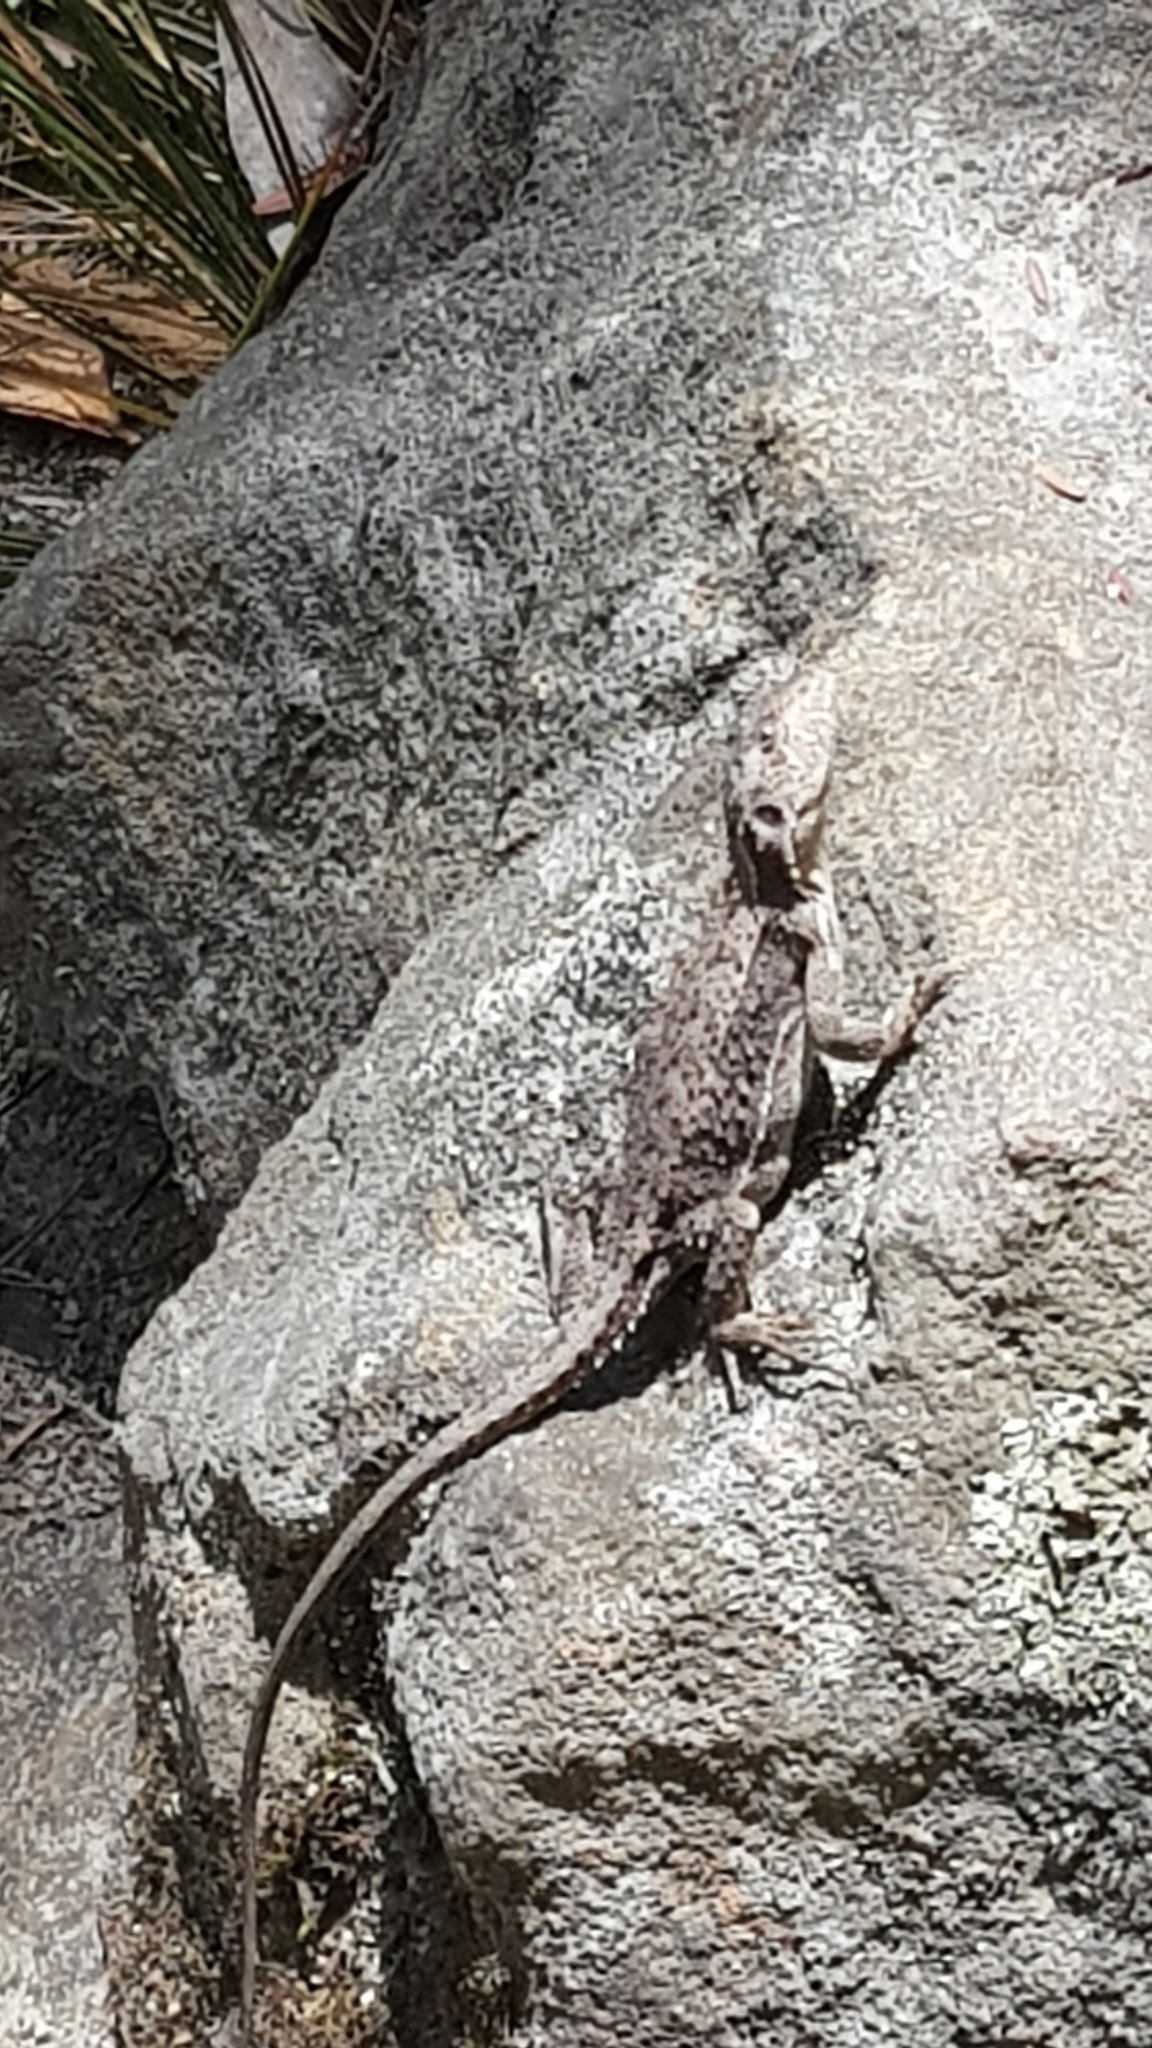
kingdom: Animalia
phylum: Chordata
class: Squamata
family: Agamidae
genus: Rankinia
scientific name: Rankinia diemensis
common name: Mountain dragon
